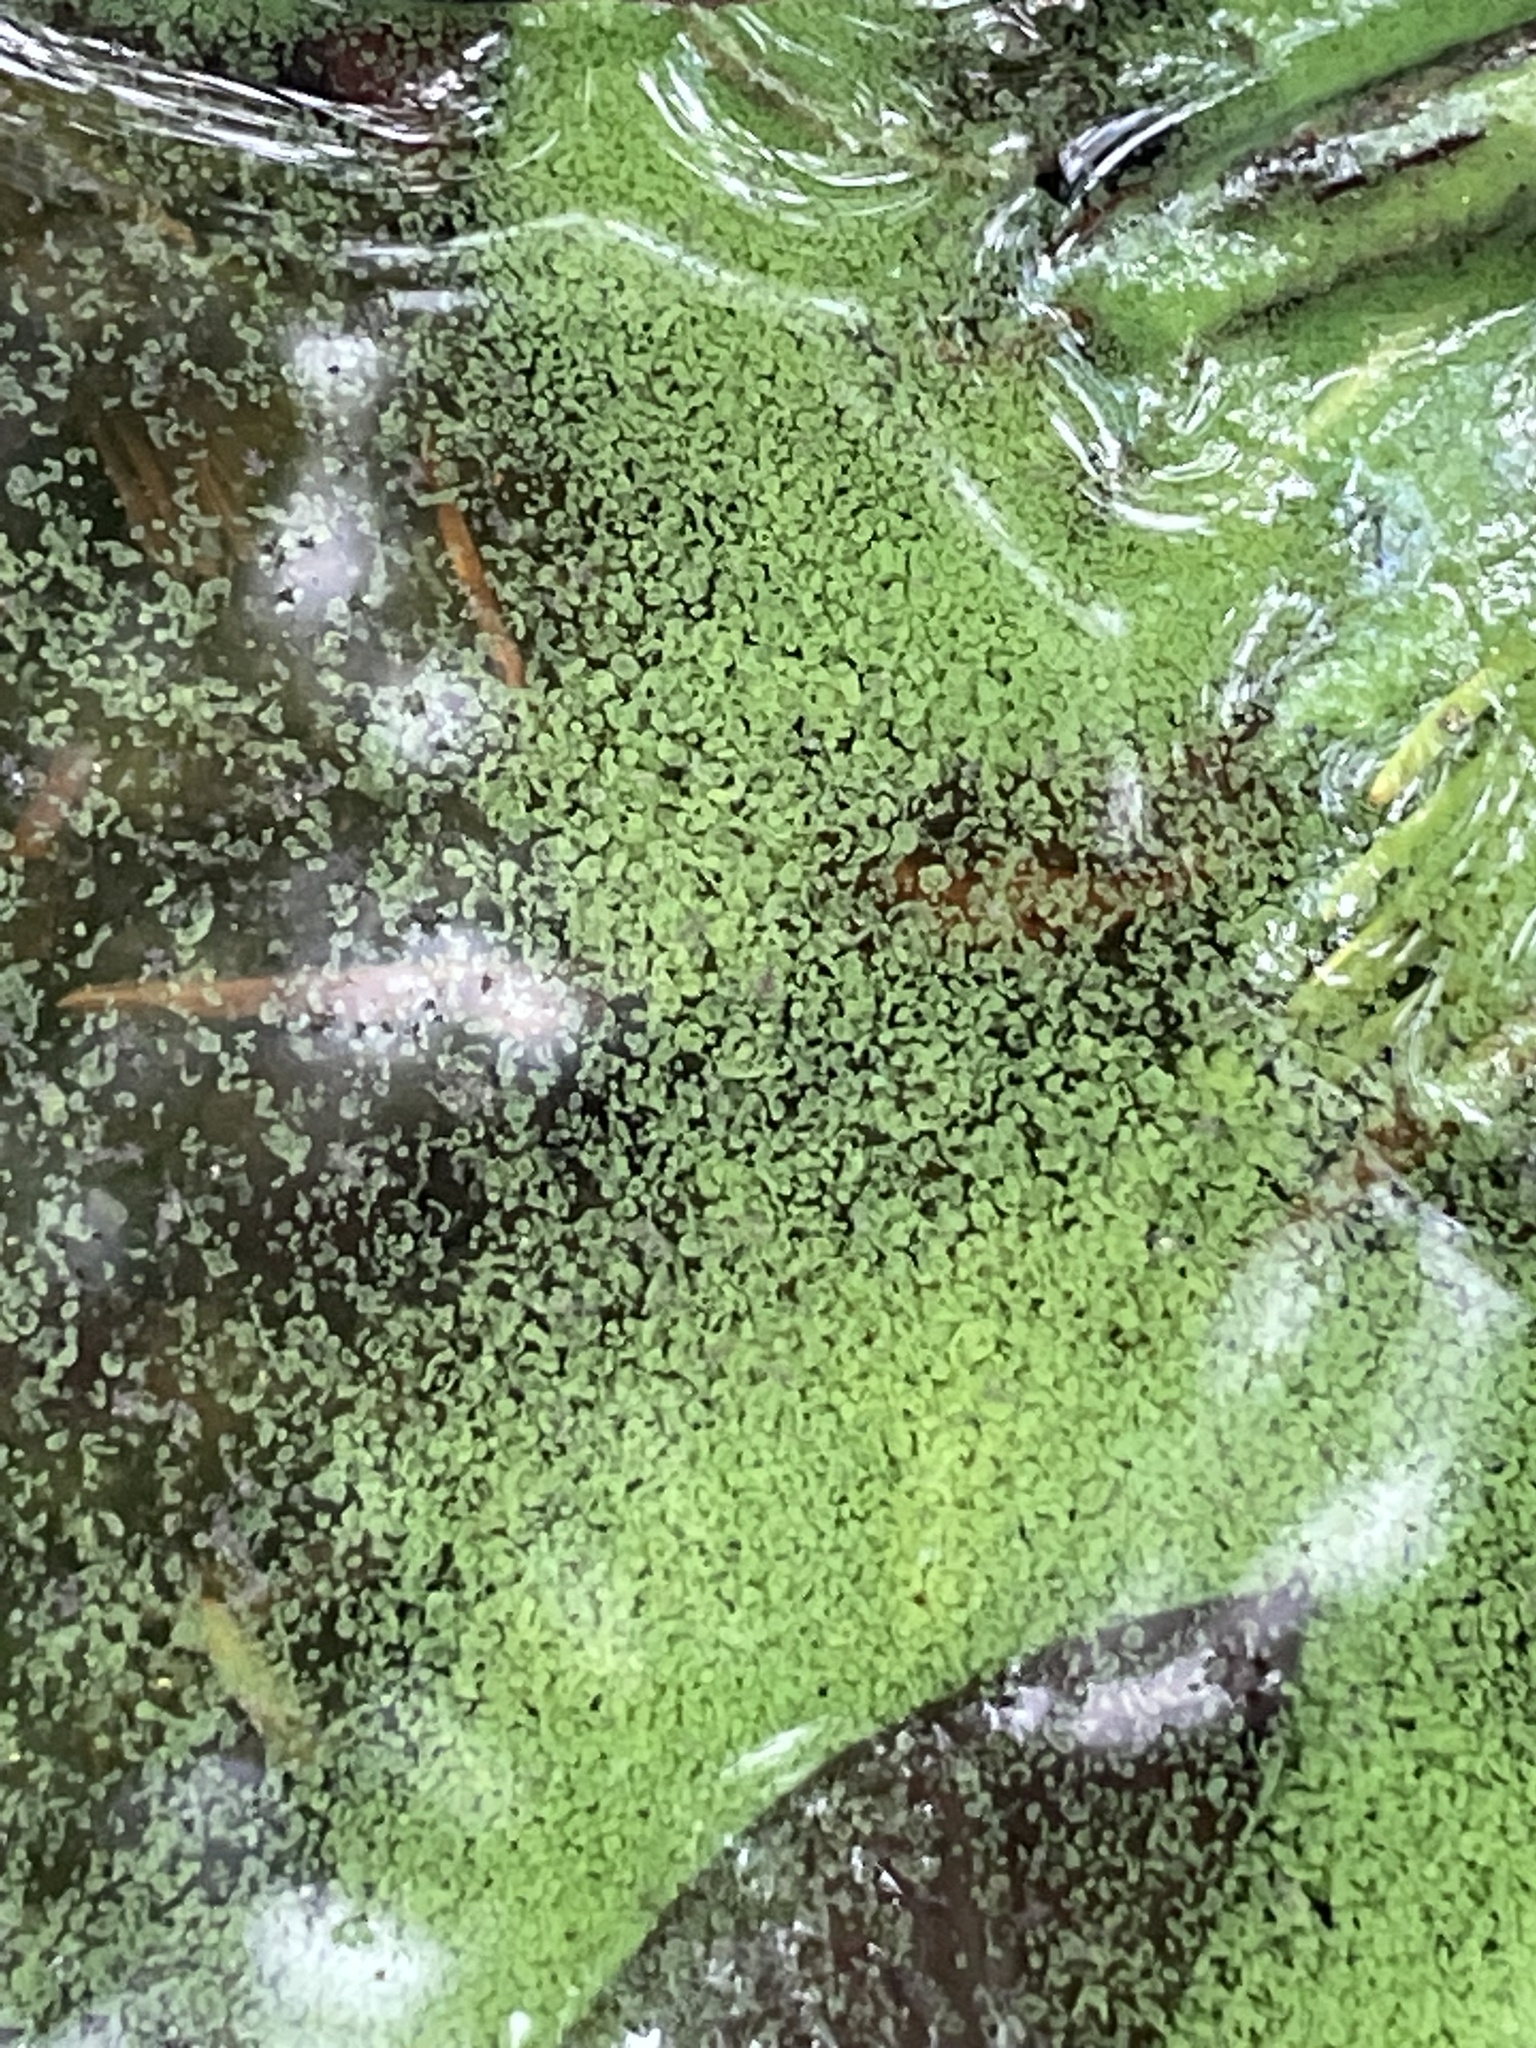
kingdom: Bacteria
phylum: Cyanobacteria
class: Cyanobacteriia
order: Cyanobacteriales
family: Microcystaceae
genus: Microcystis
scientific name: Microcystis aeruginosa
